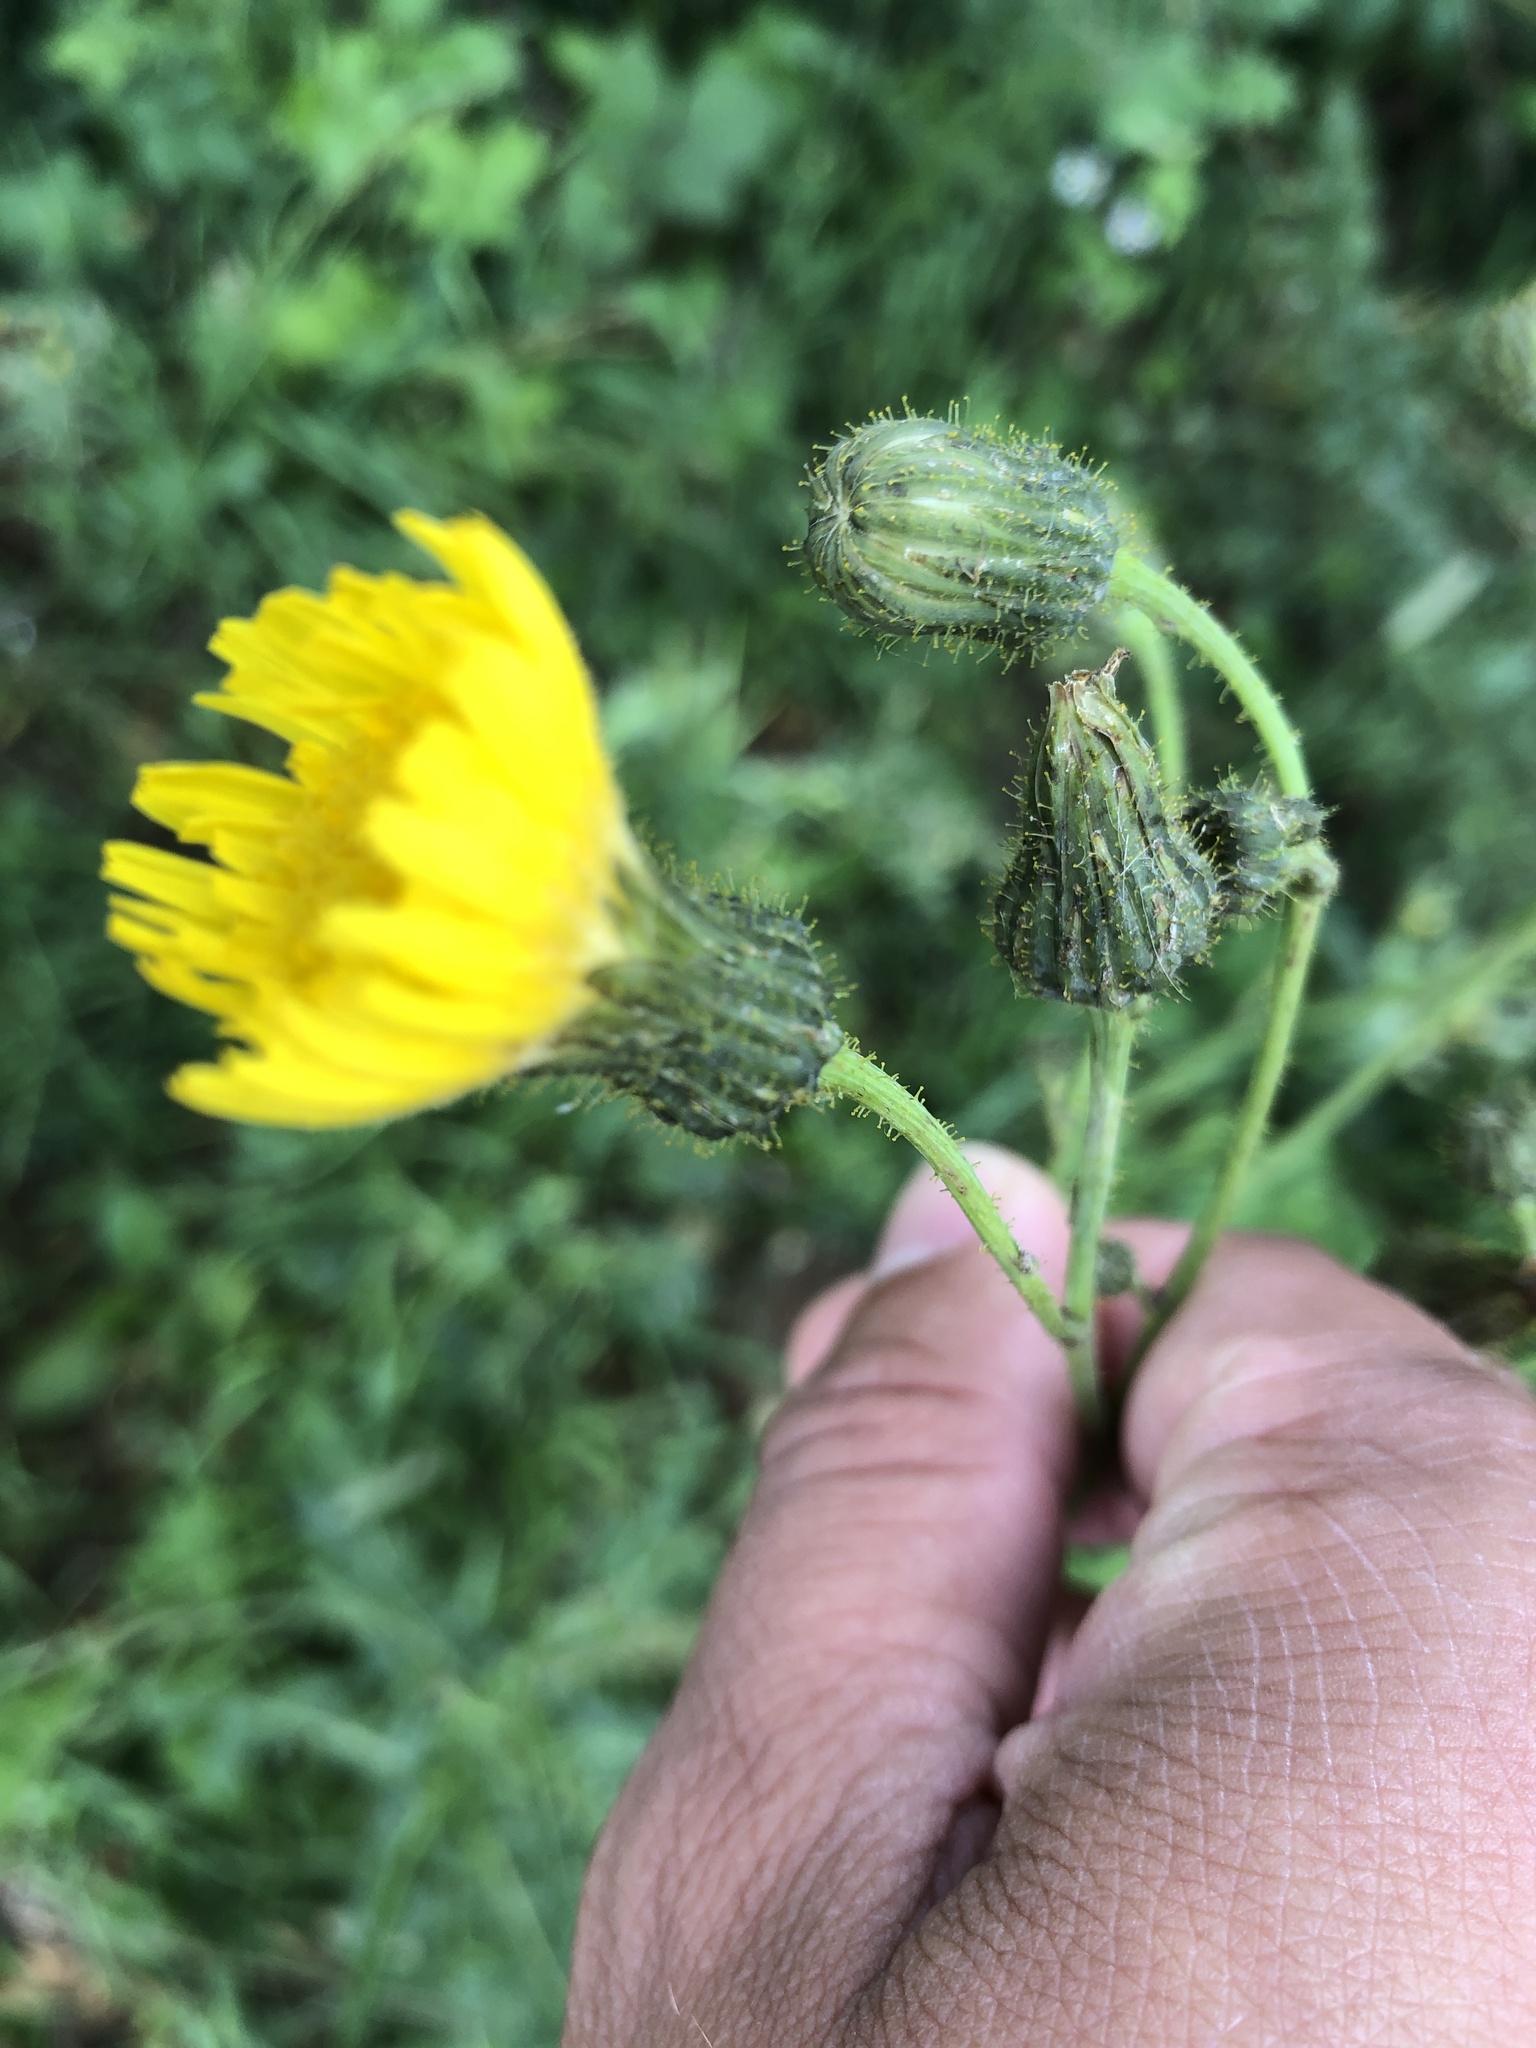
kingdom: Plantae
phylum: Tracheophyta
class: Magnoliopsida
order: Asterales
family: Asteraceae
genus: Sonchus
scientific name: Sonchus arvensis
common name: Perennial sow-thistle
